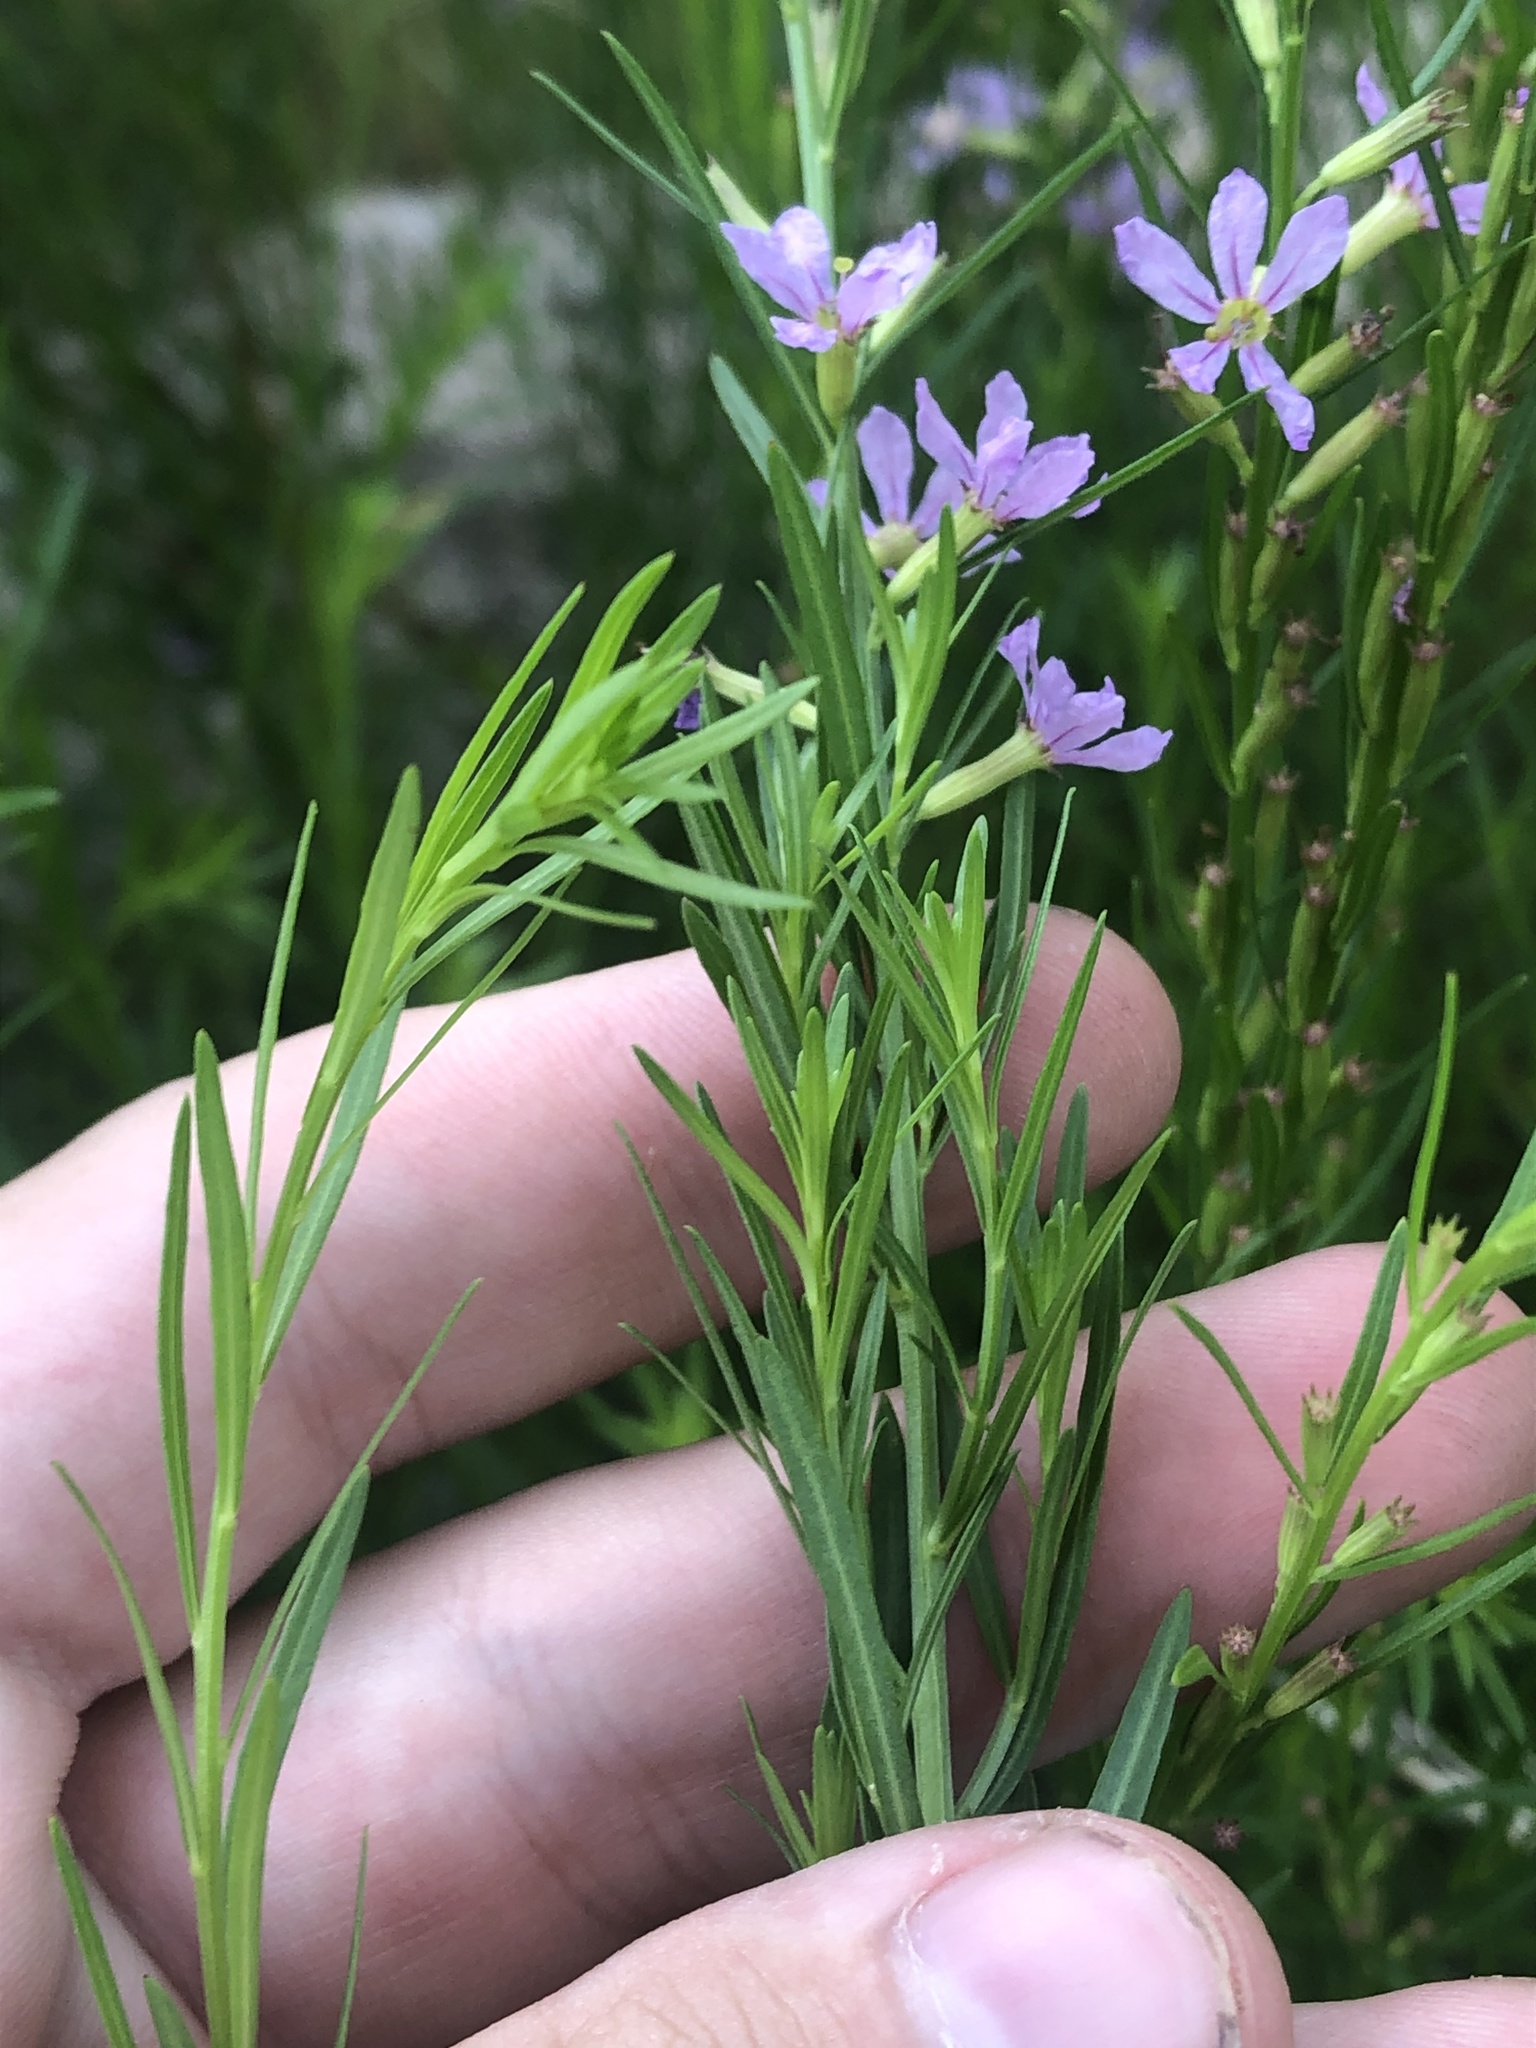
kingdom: Plantae
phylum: Tracheophyta
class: Magnoliopsida
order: Myrtales
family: Lythraceae
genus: Lythrum
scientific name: Lythrum californicum
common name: California loosestrife
